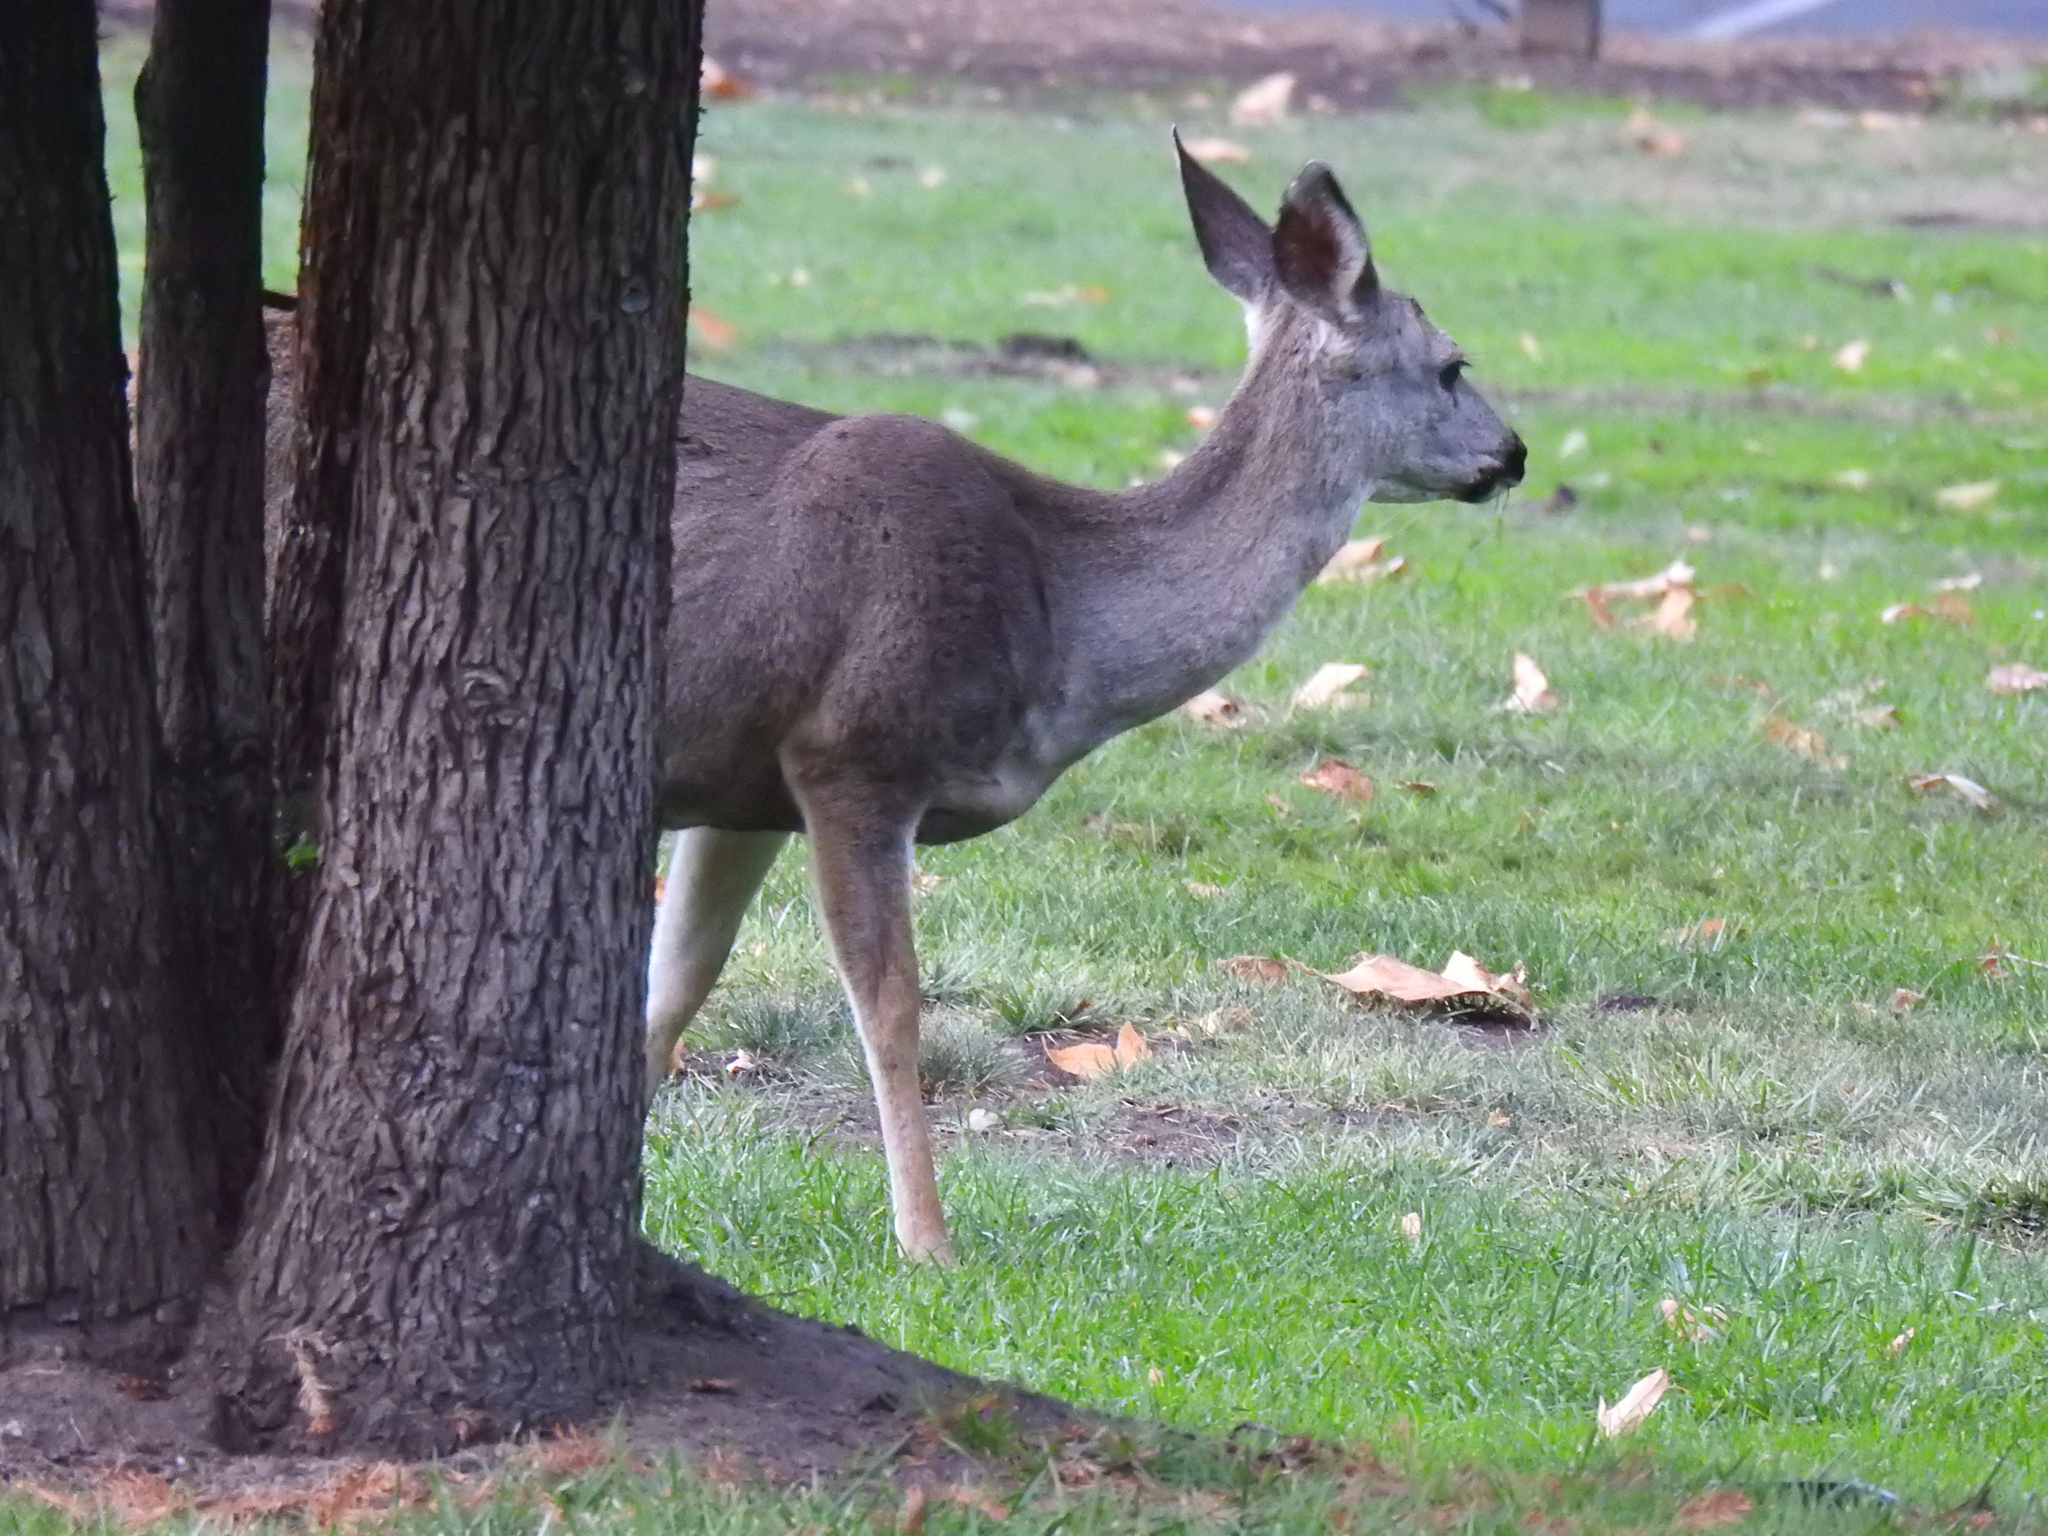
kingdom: Animalia
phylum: Chordata
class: Mammalia
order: Artiodactyla
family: Cervidae
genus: Odocoileus
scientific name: Odocoileus hemionus
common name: Mule deer
